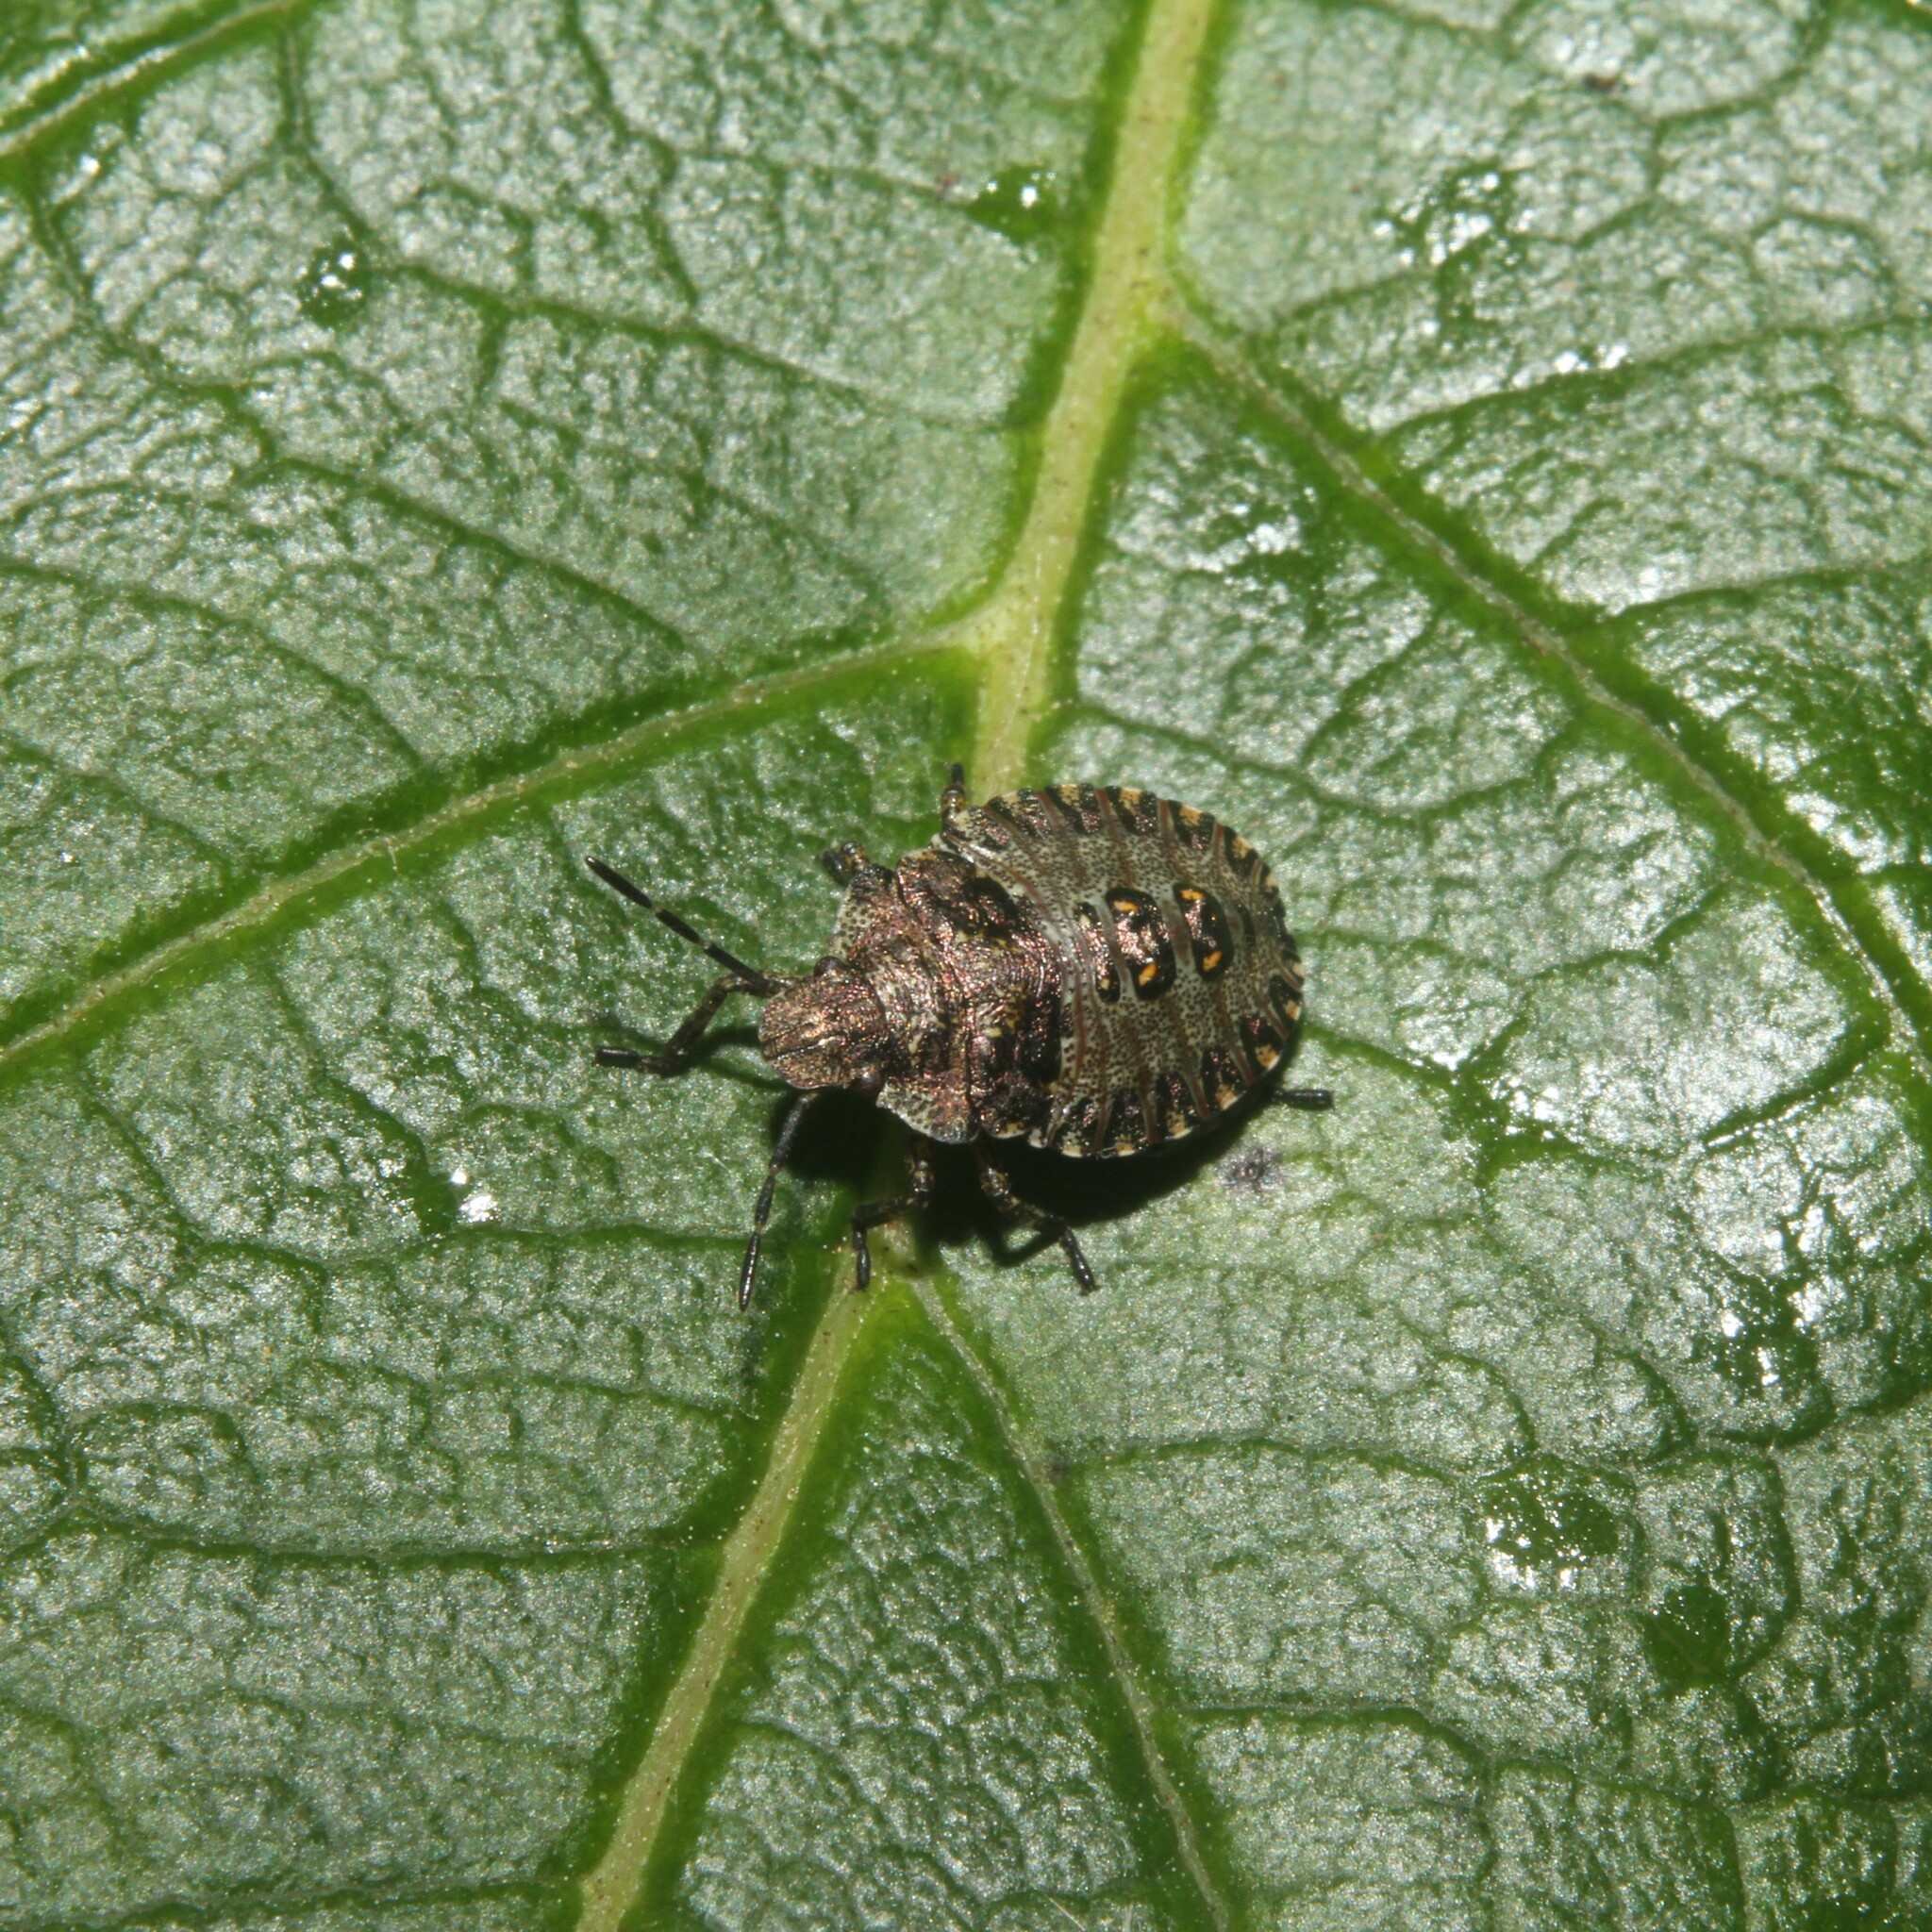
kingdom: Animalia
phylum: Arthropoda
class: Insecta
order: Hemiptera
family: Pentatomidae
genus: Pentatoma
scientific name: Pentatoma rufipes
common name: Forest bug
